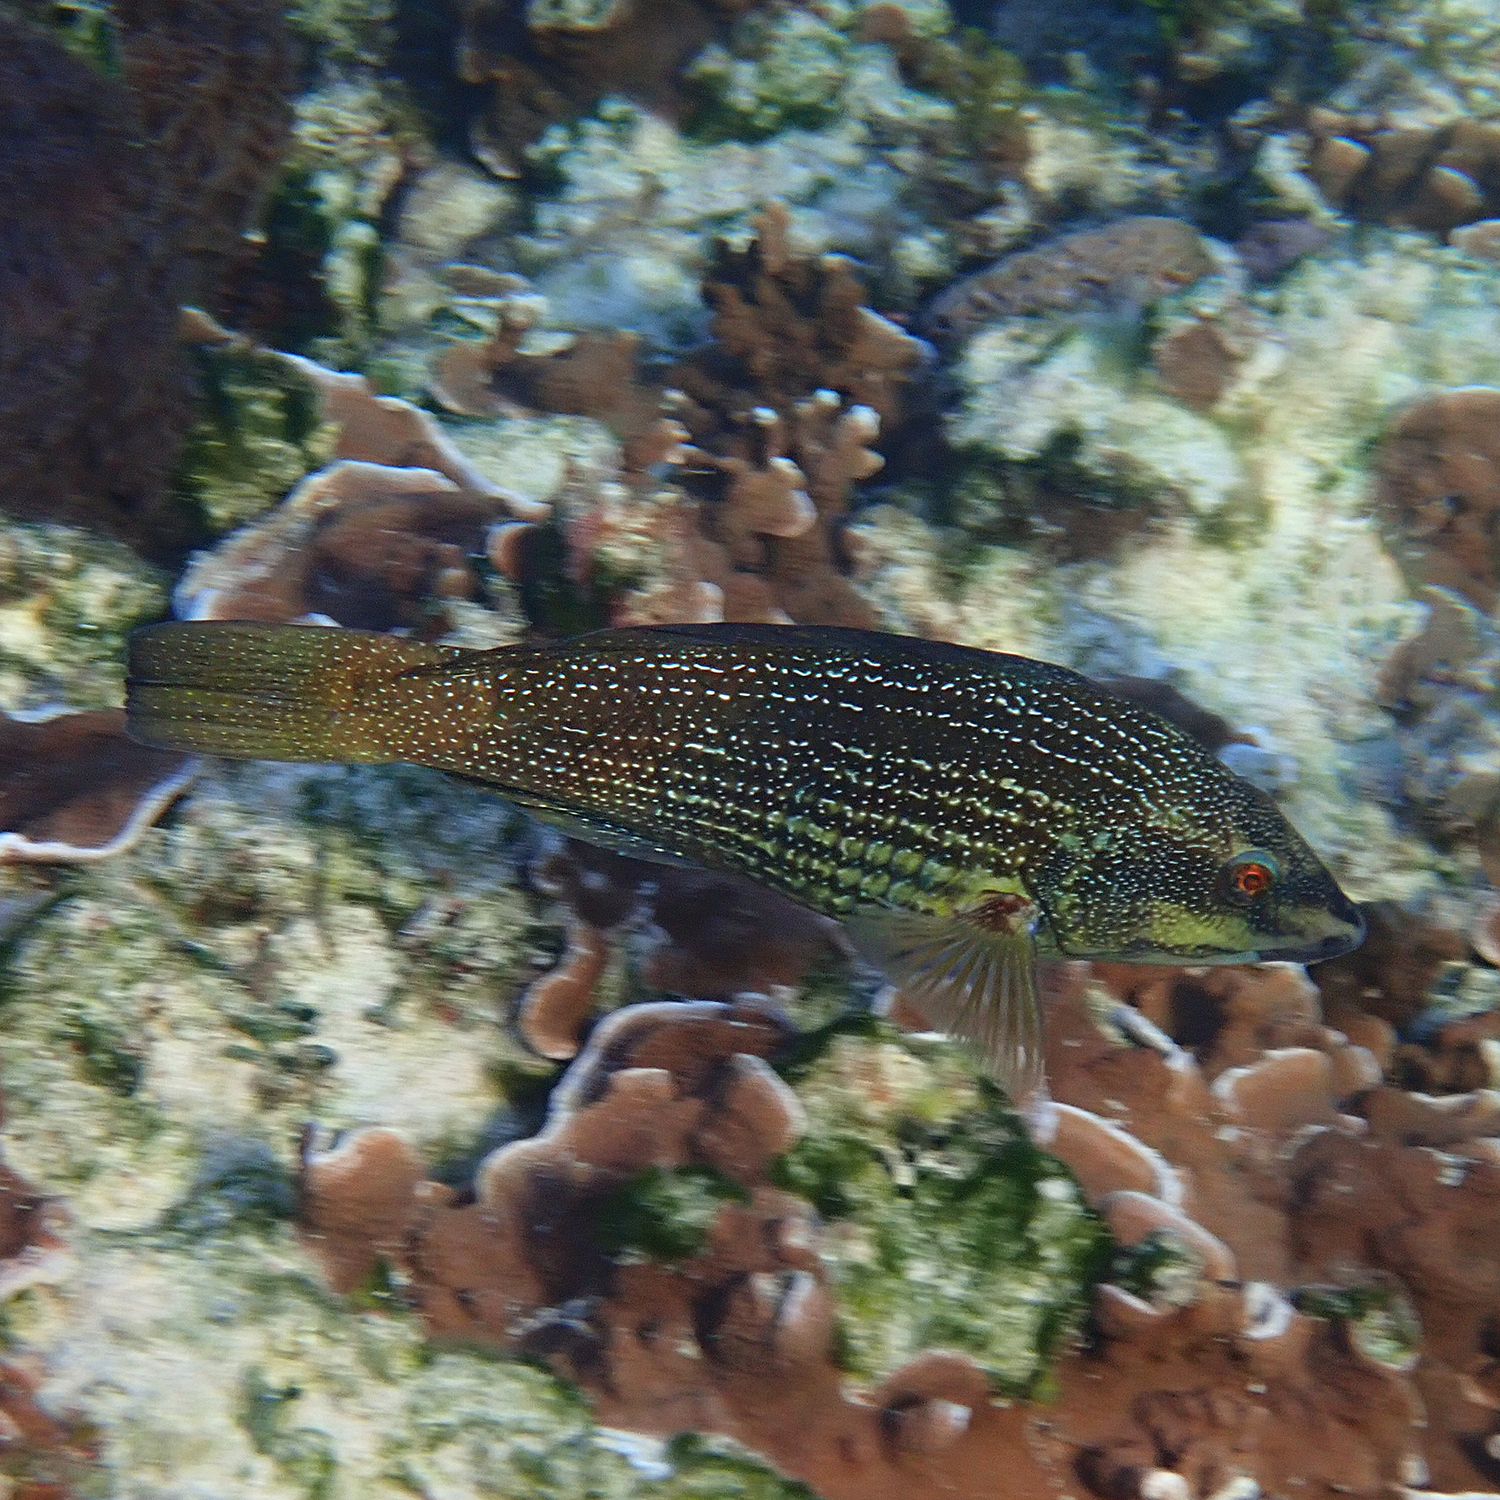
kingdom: Animalia
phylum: Chordata
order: Perciformes
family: Labridae
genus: Notolabrus
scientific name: Notolabrus inscriptus
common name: Green wrasse
